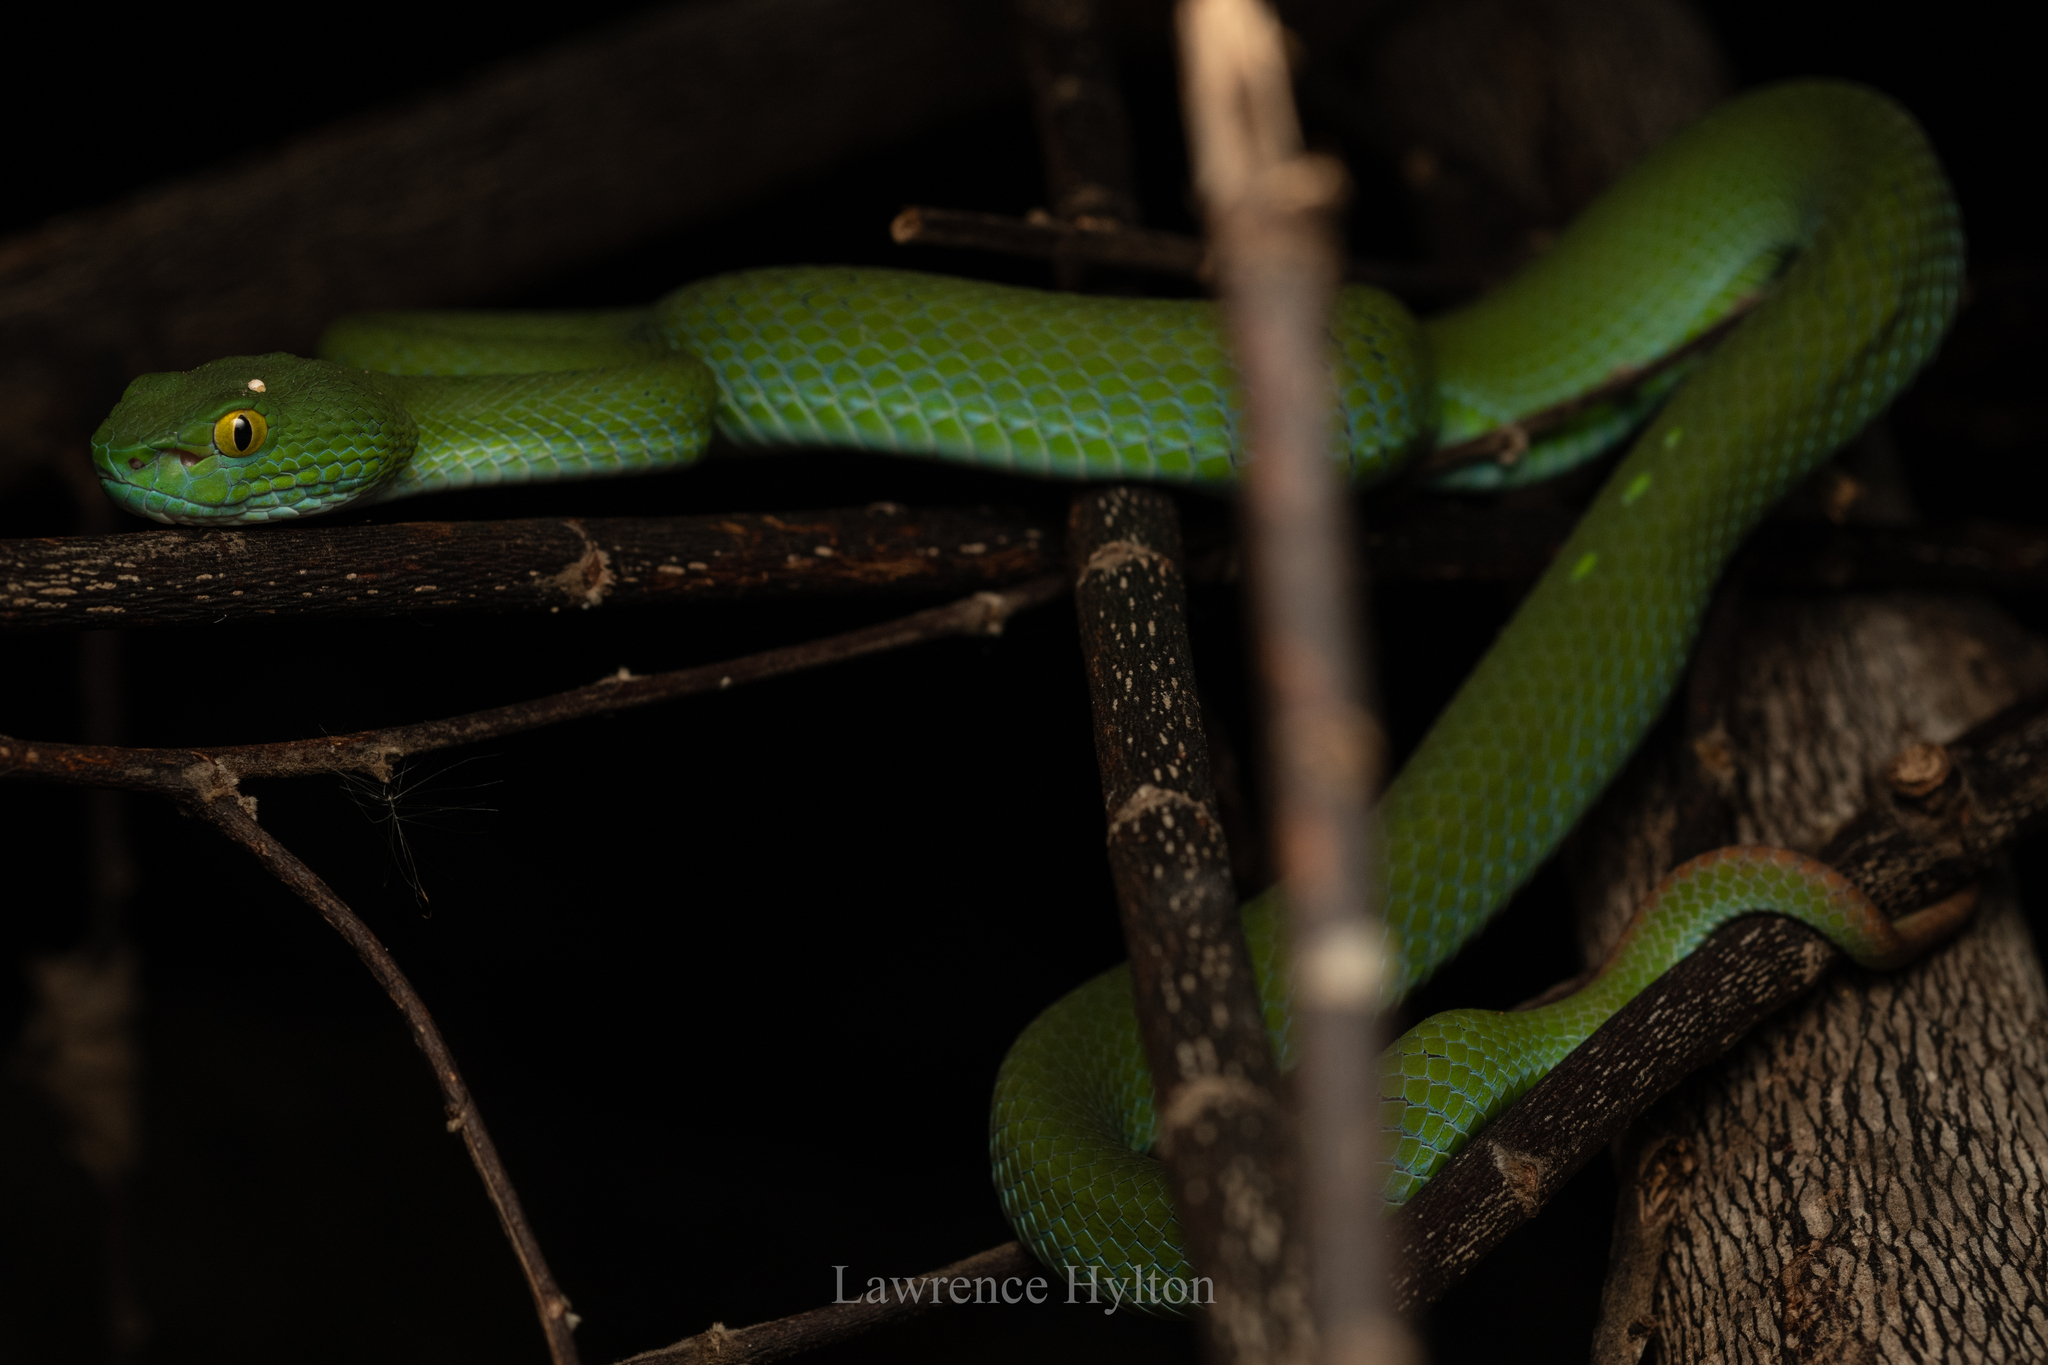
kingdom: Animalia
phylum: Chordata
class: Squamata
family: Viperidae
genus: Trimeresurus
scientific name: Trimeresurus macrops
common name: Kramer's pit viper
